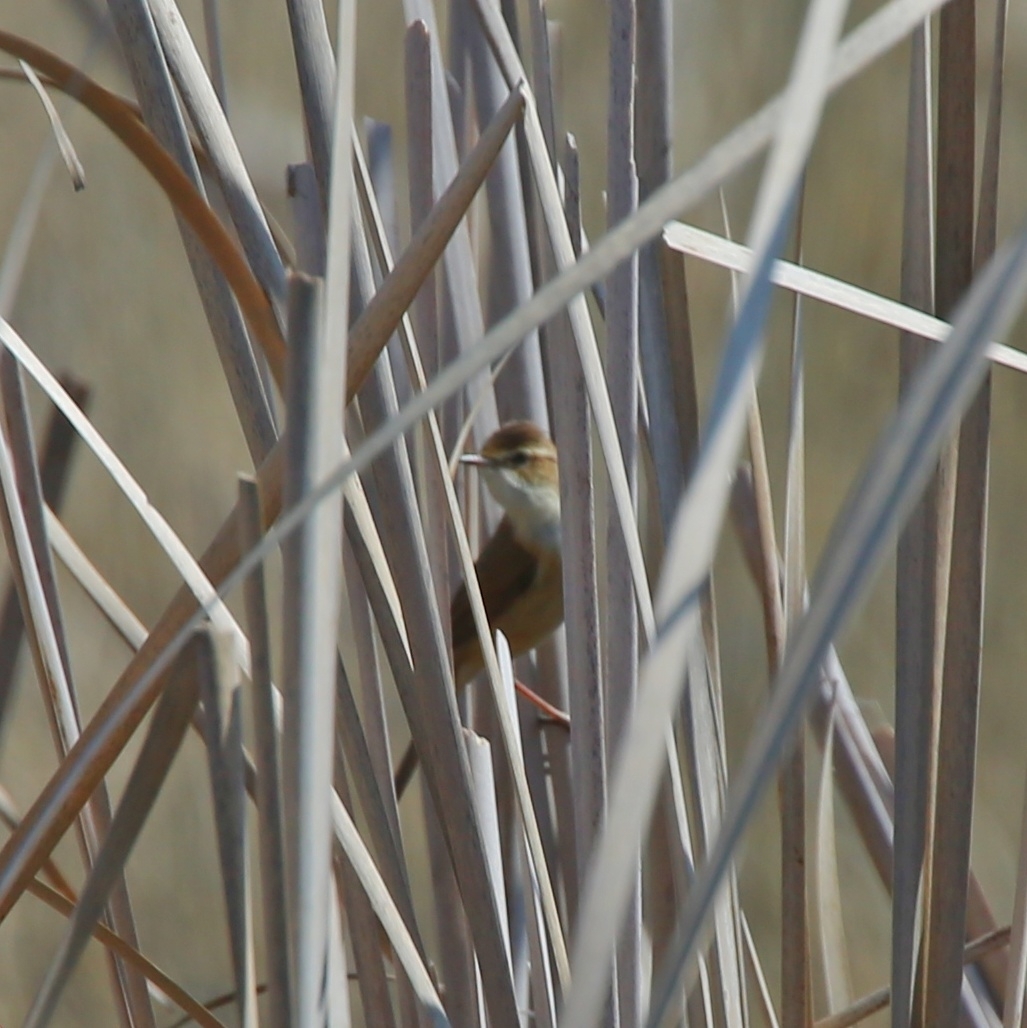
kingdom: Animalia
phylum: Chordata
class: Aves
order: Passeriformes
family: Acrocephalidae
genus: Acrocephalus
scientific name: Acrocephalus agricola
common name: Paddyfield warbler
